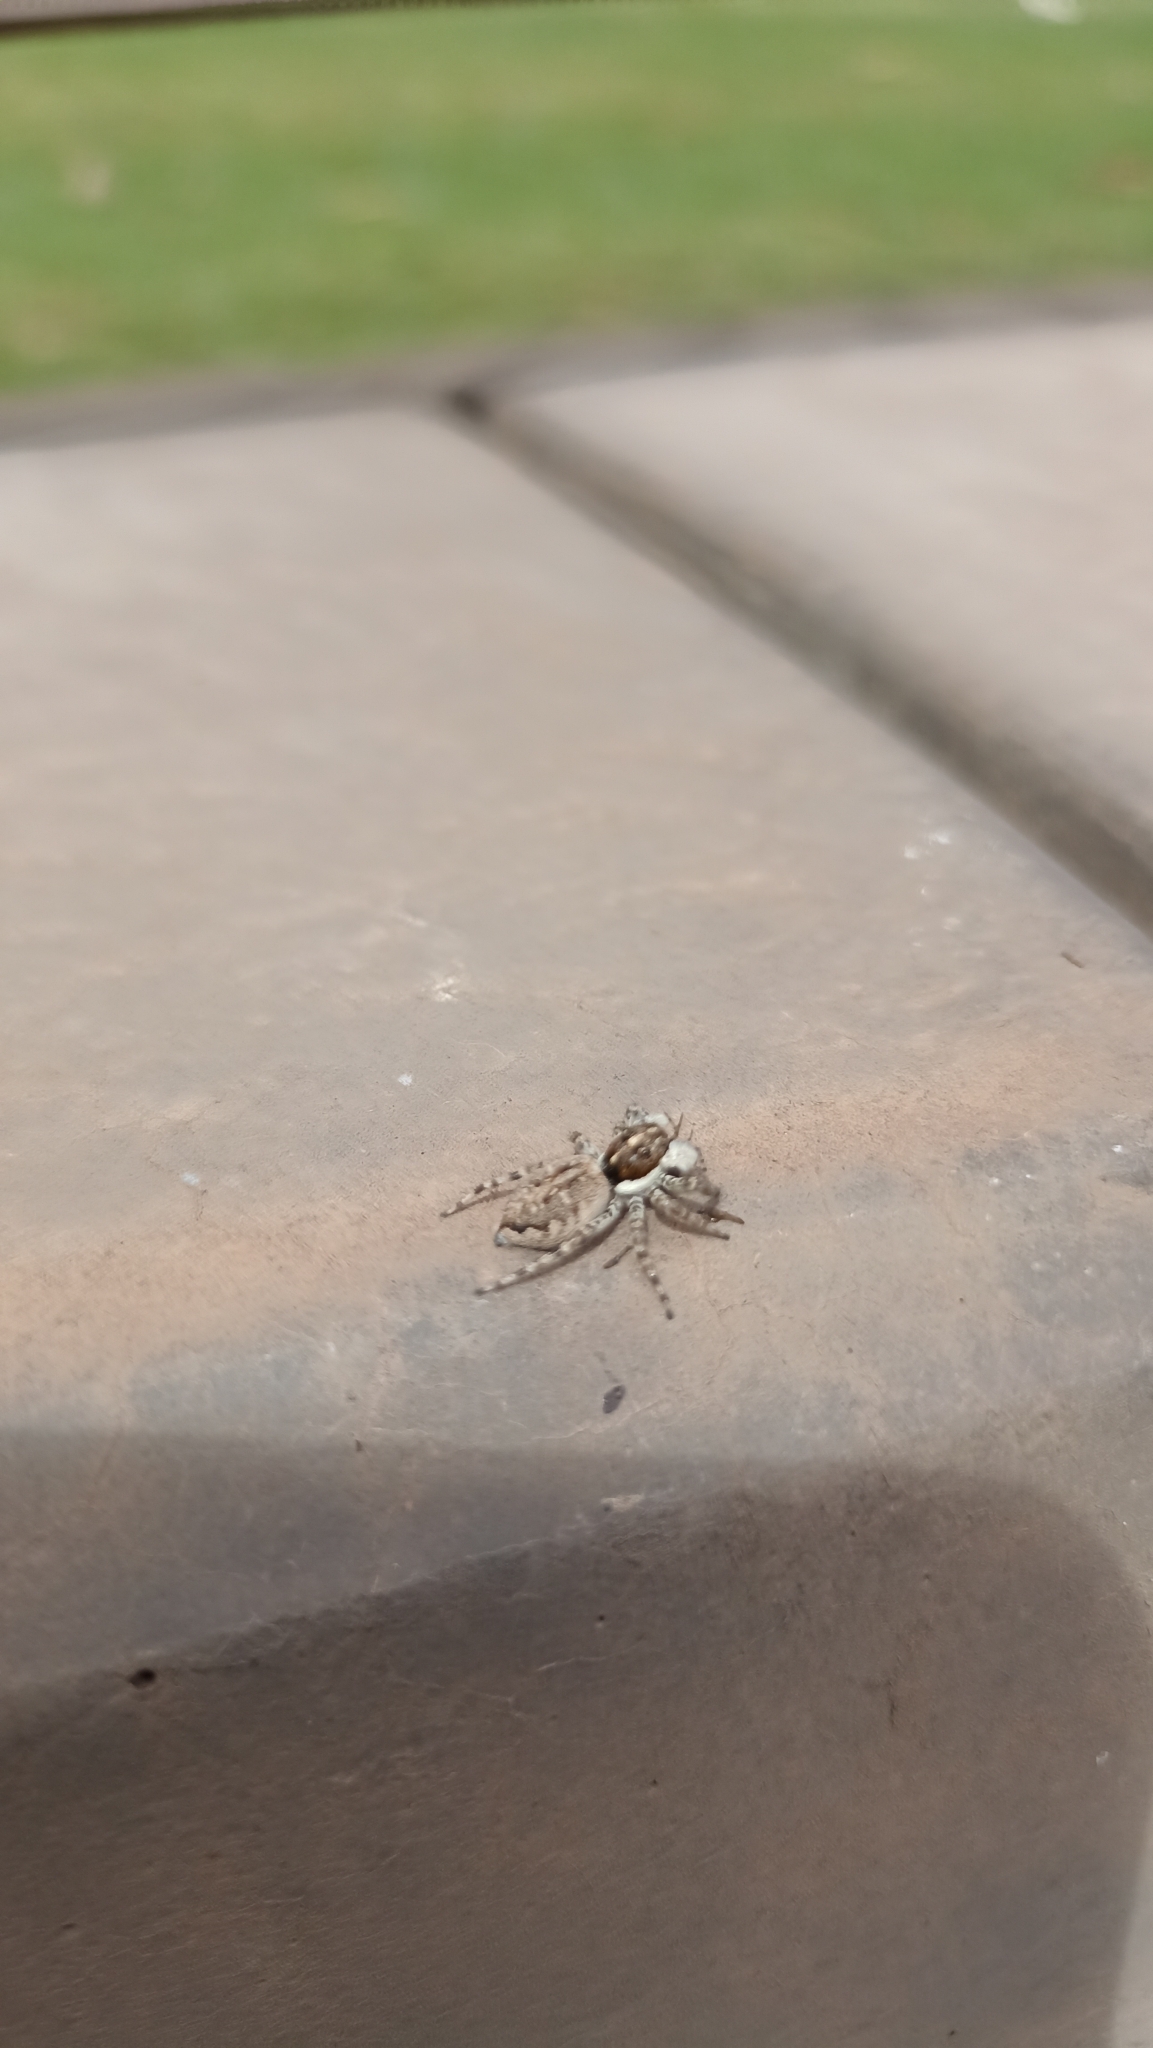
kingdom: Animalia
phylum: Arthropoda
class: Arachnida
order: Araneae
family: Salticidae
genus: Menemerus
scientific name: Menemerus semilimbatus
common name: Jumping spider
